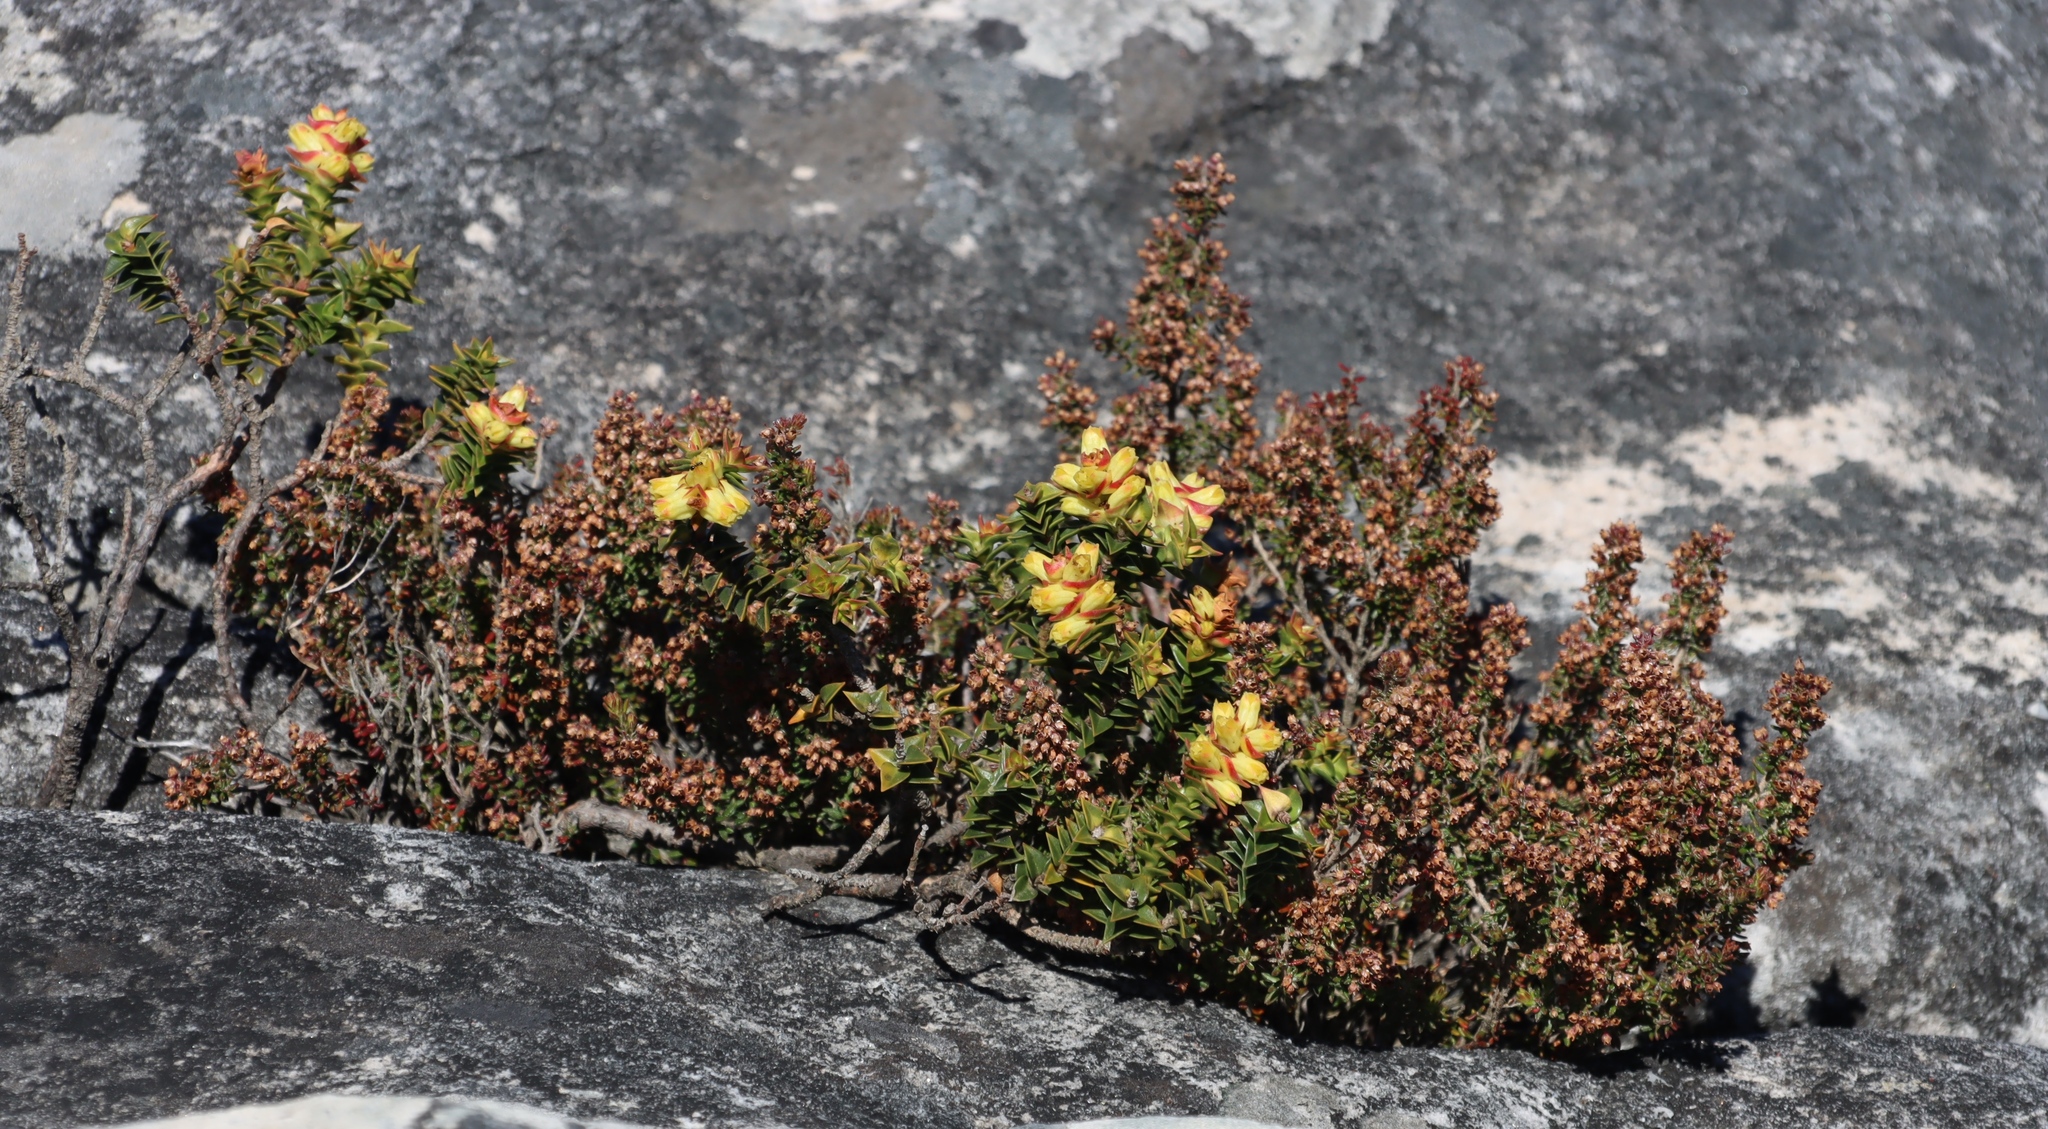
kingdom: Plantae
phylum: Tracheophyta
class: Magnoliopsida
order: Ericales
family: Ericaceae
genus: Erica
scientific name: Erica hispidula
